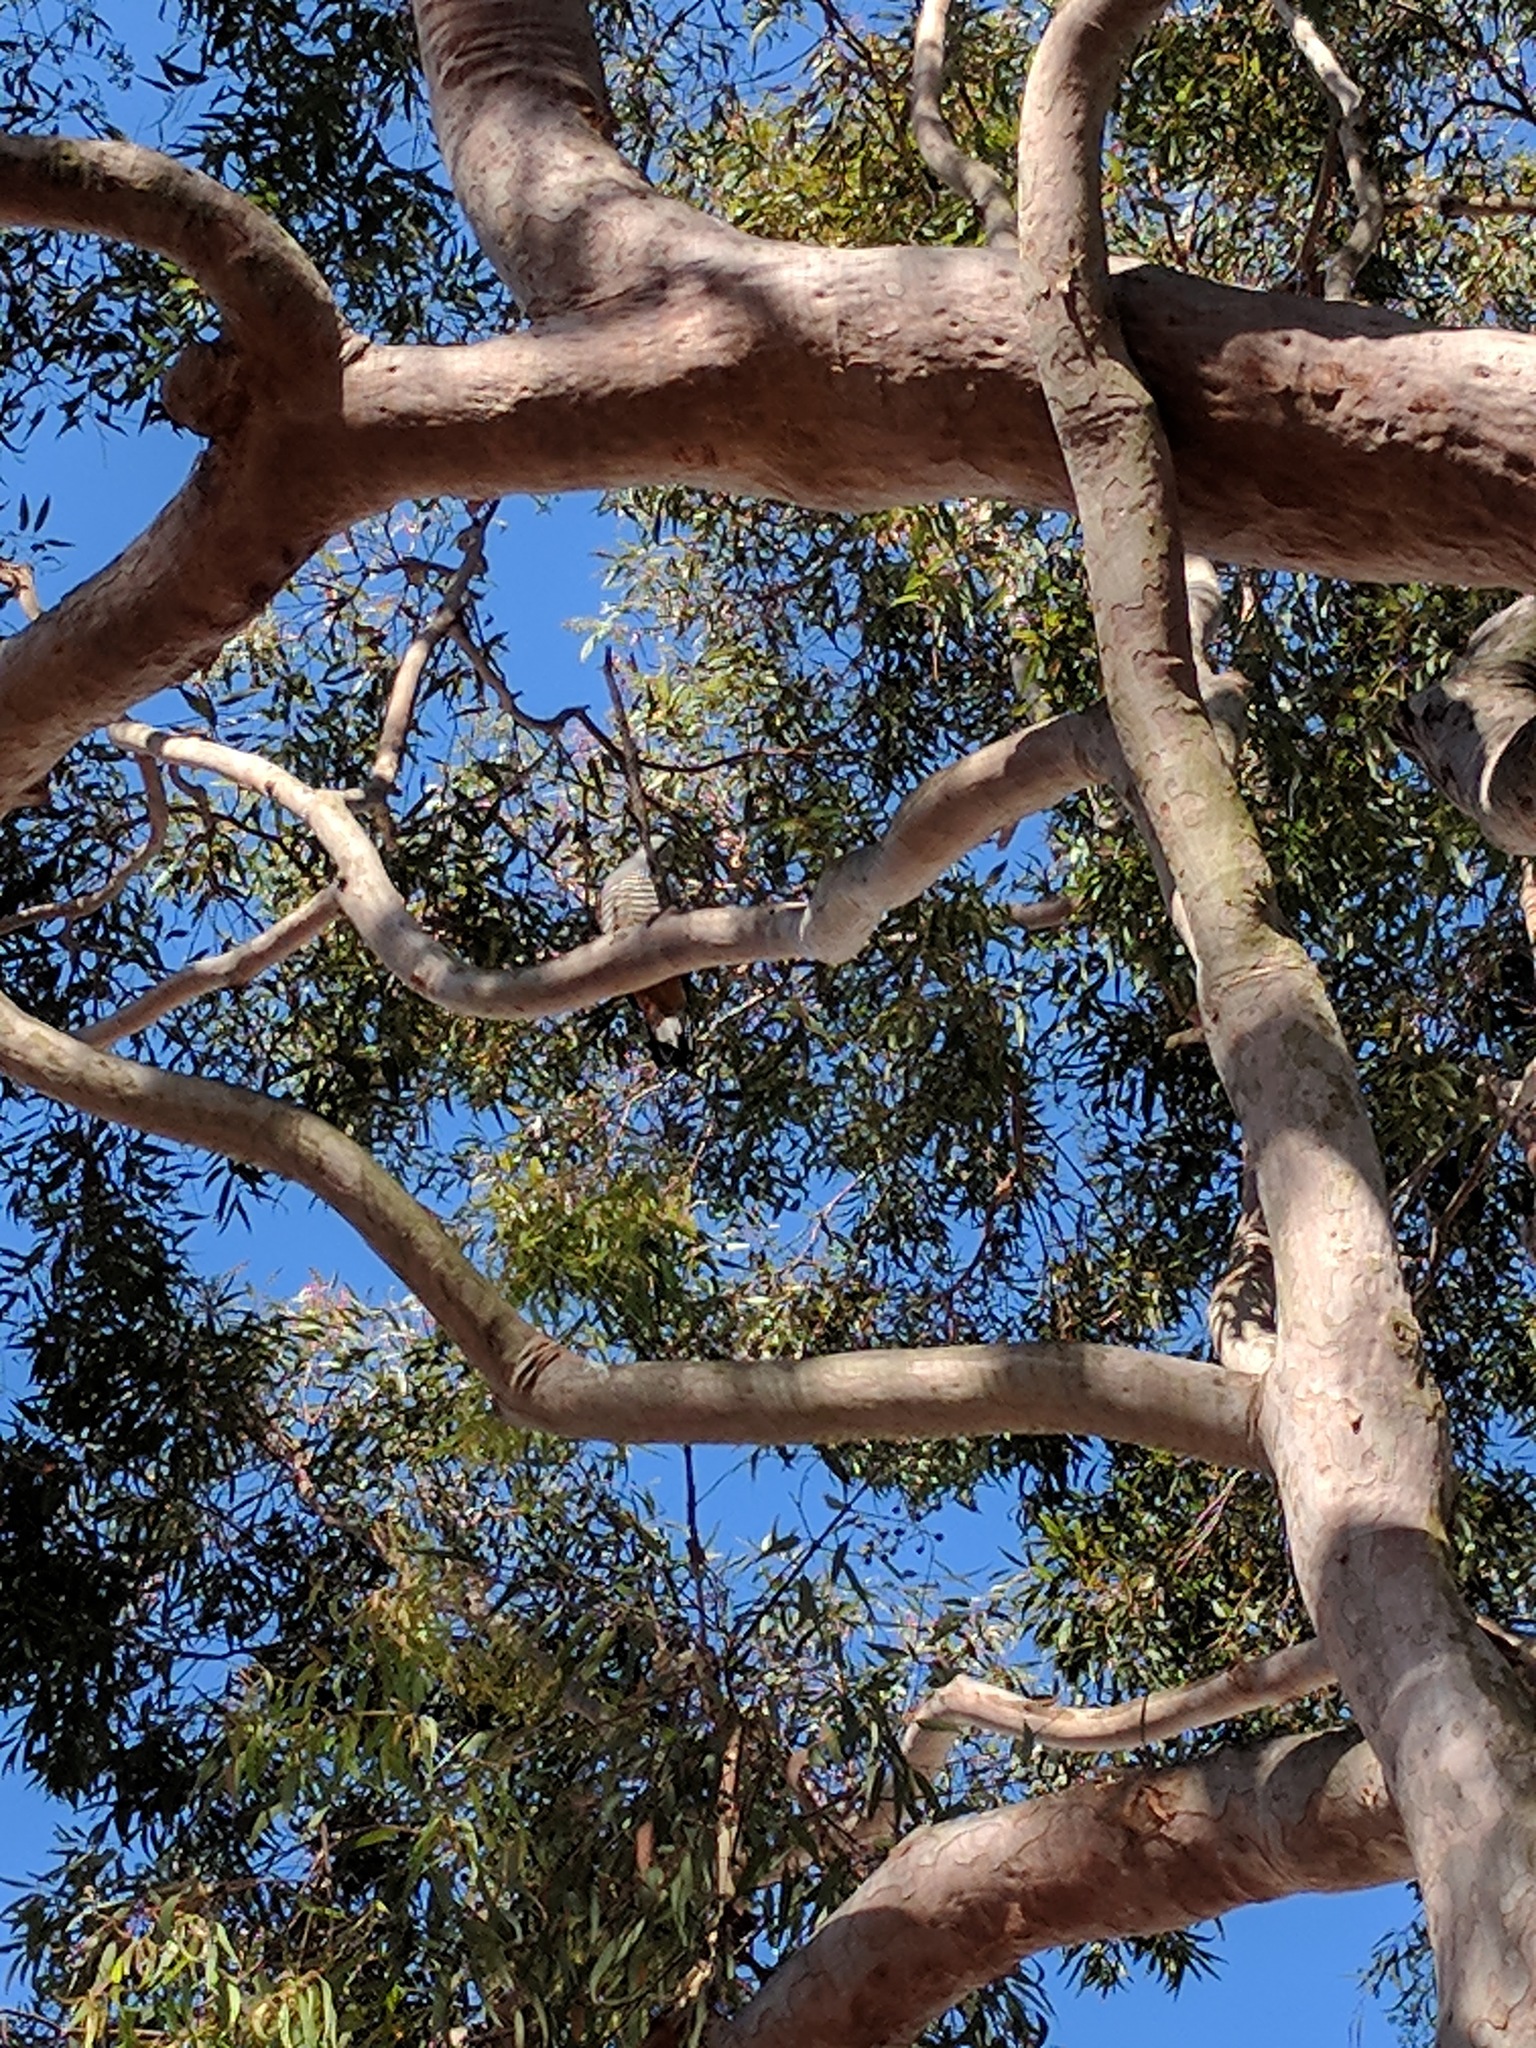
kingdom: Animalia
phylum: Chordata
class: Aves
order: Accipitriformes
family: Accipitridae
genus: Aviceda
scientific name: Aviceda subcristata
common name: Pacific baza
